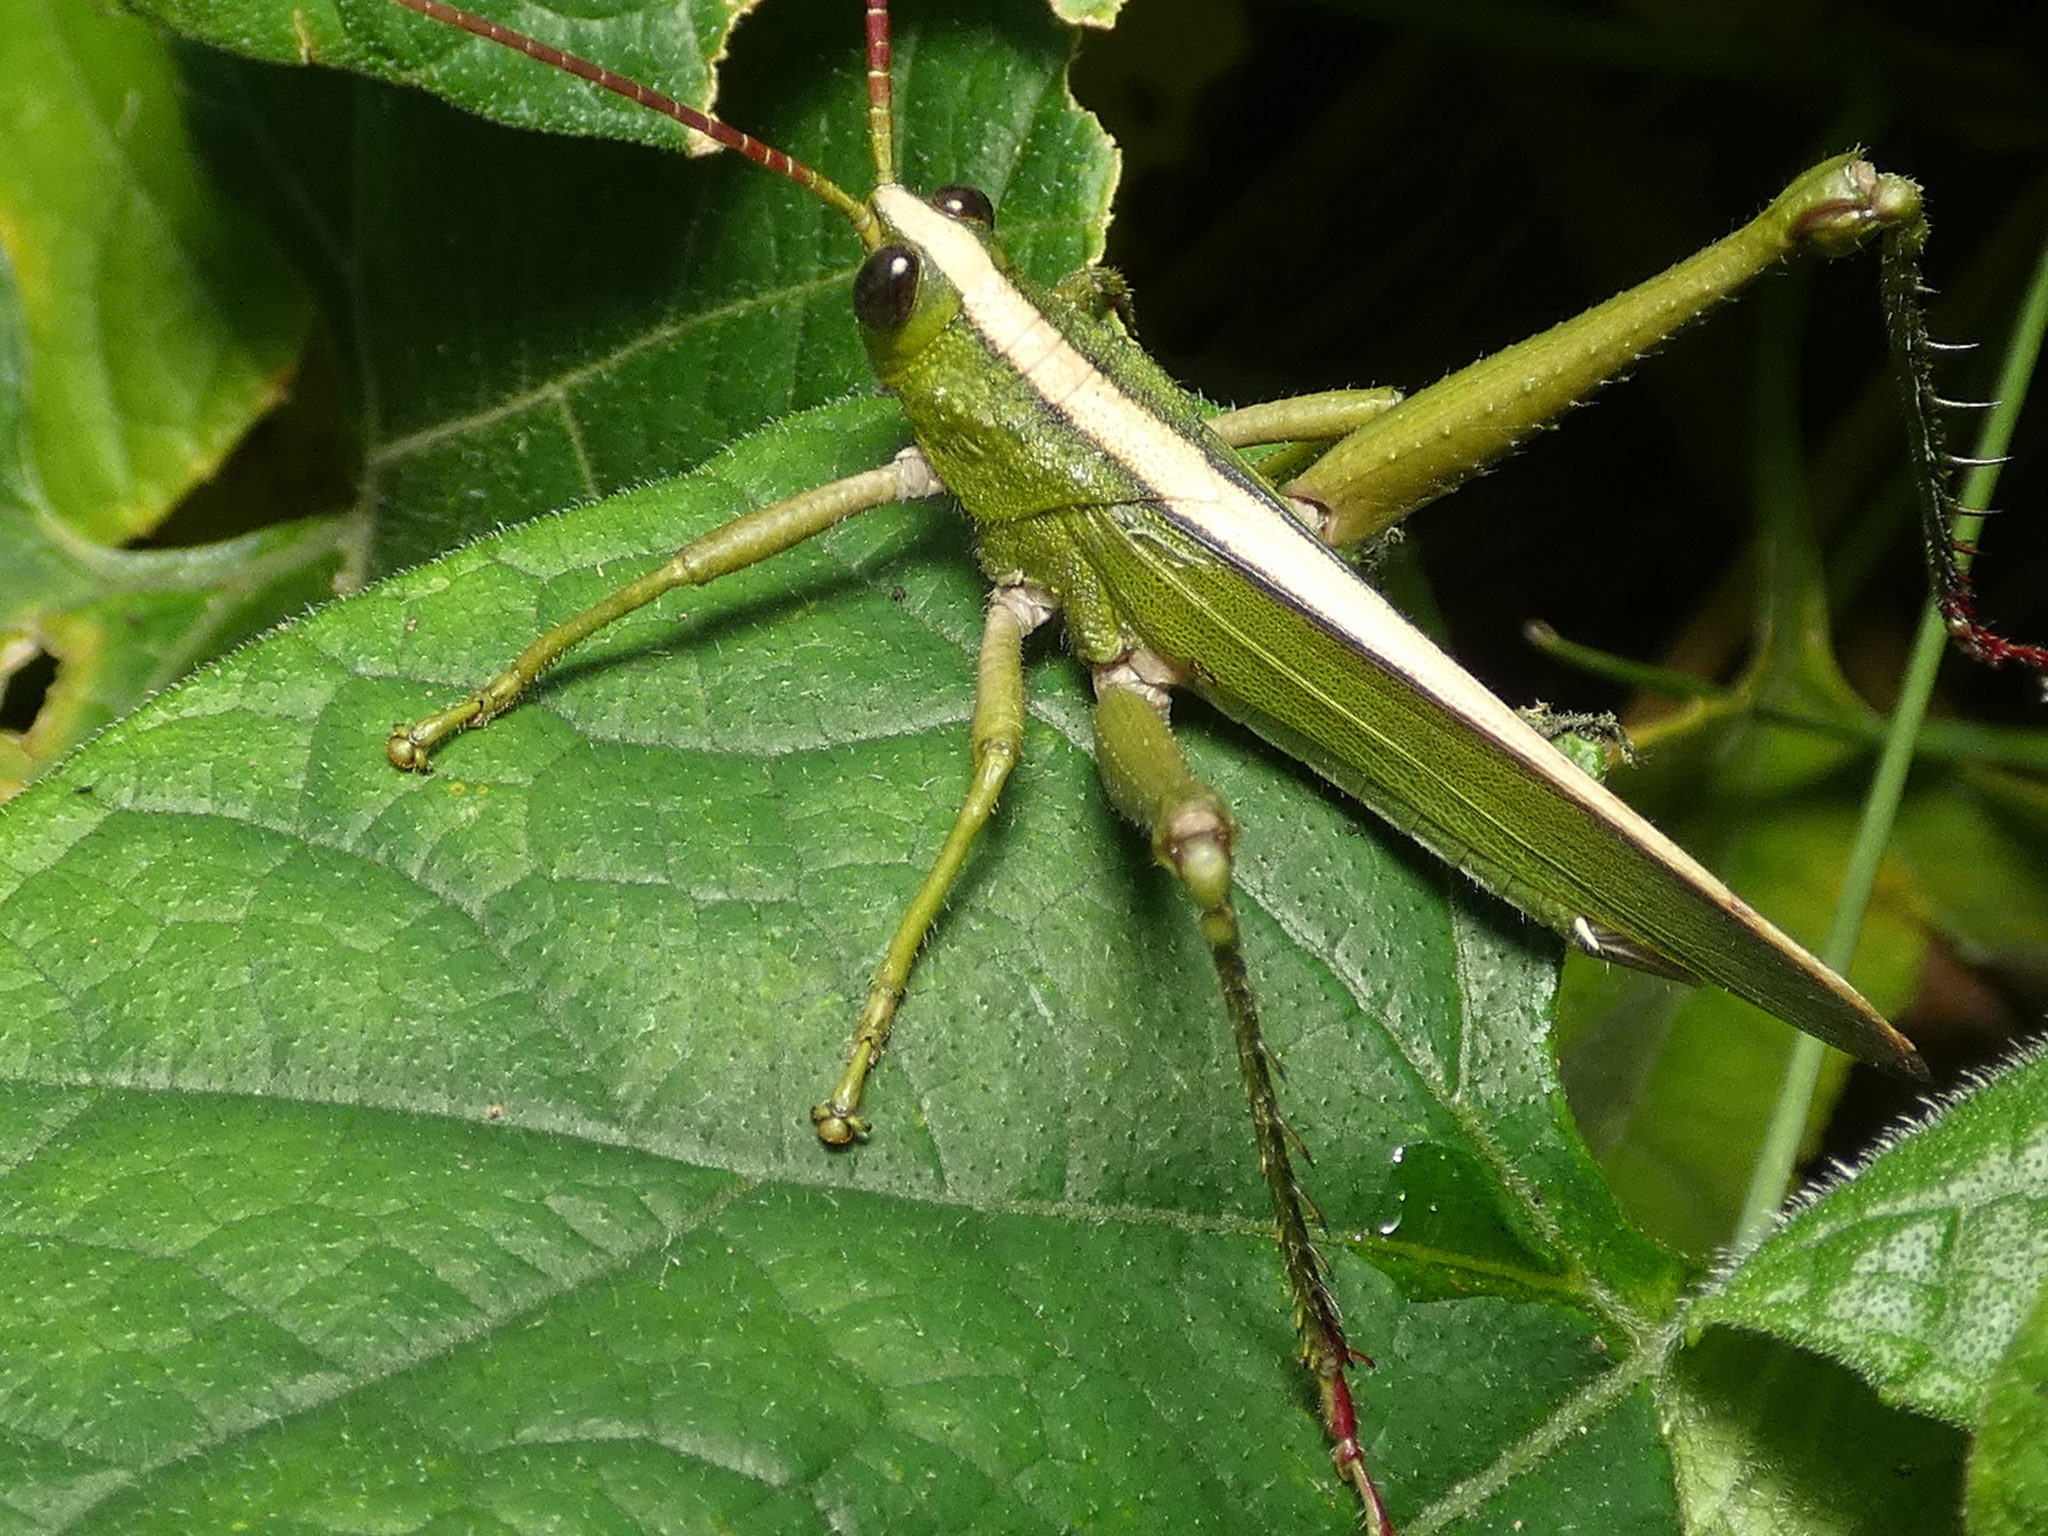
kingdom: Animalia
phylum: Arthropoda
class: Insecta
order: Orthoptera
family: Romaleidae
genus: Agriacris
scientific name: Agriacris auripennis
